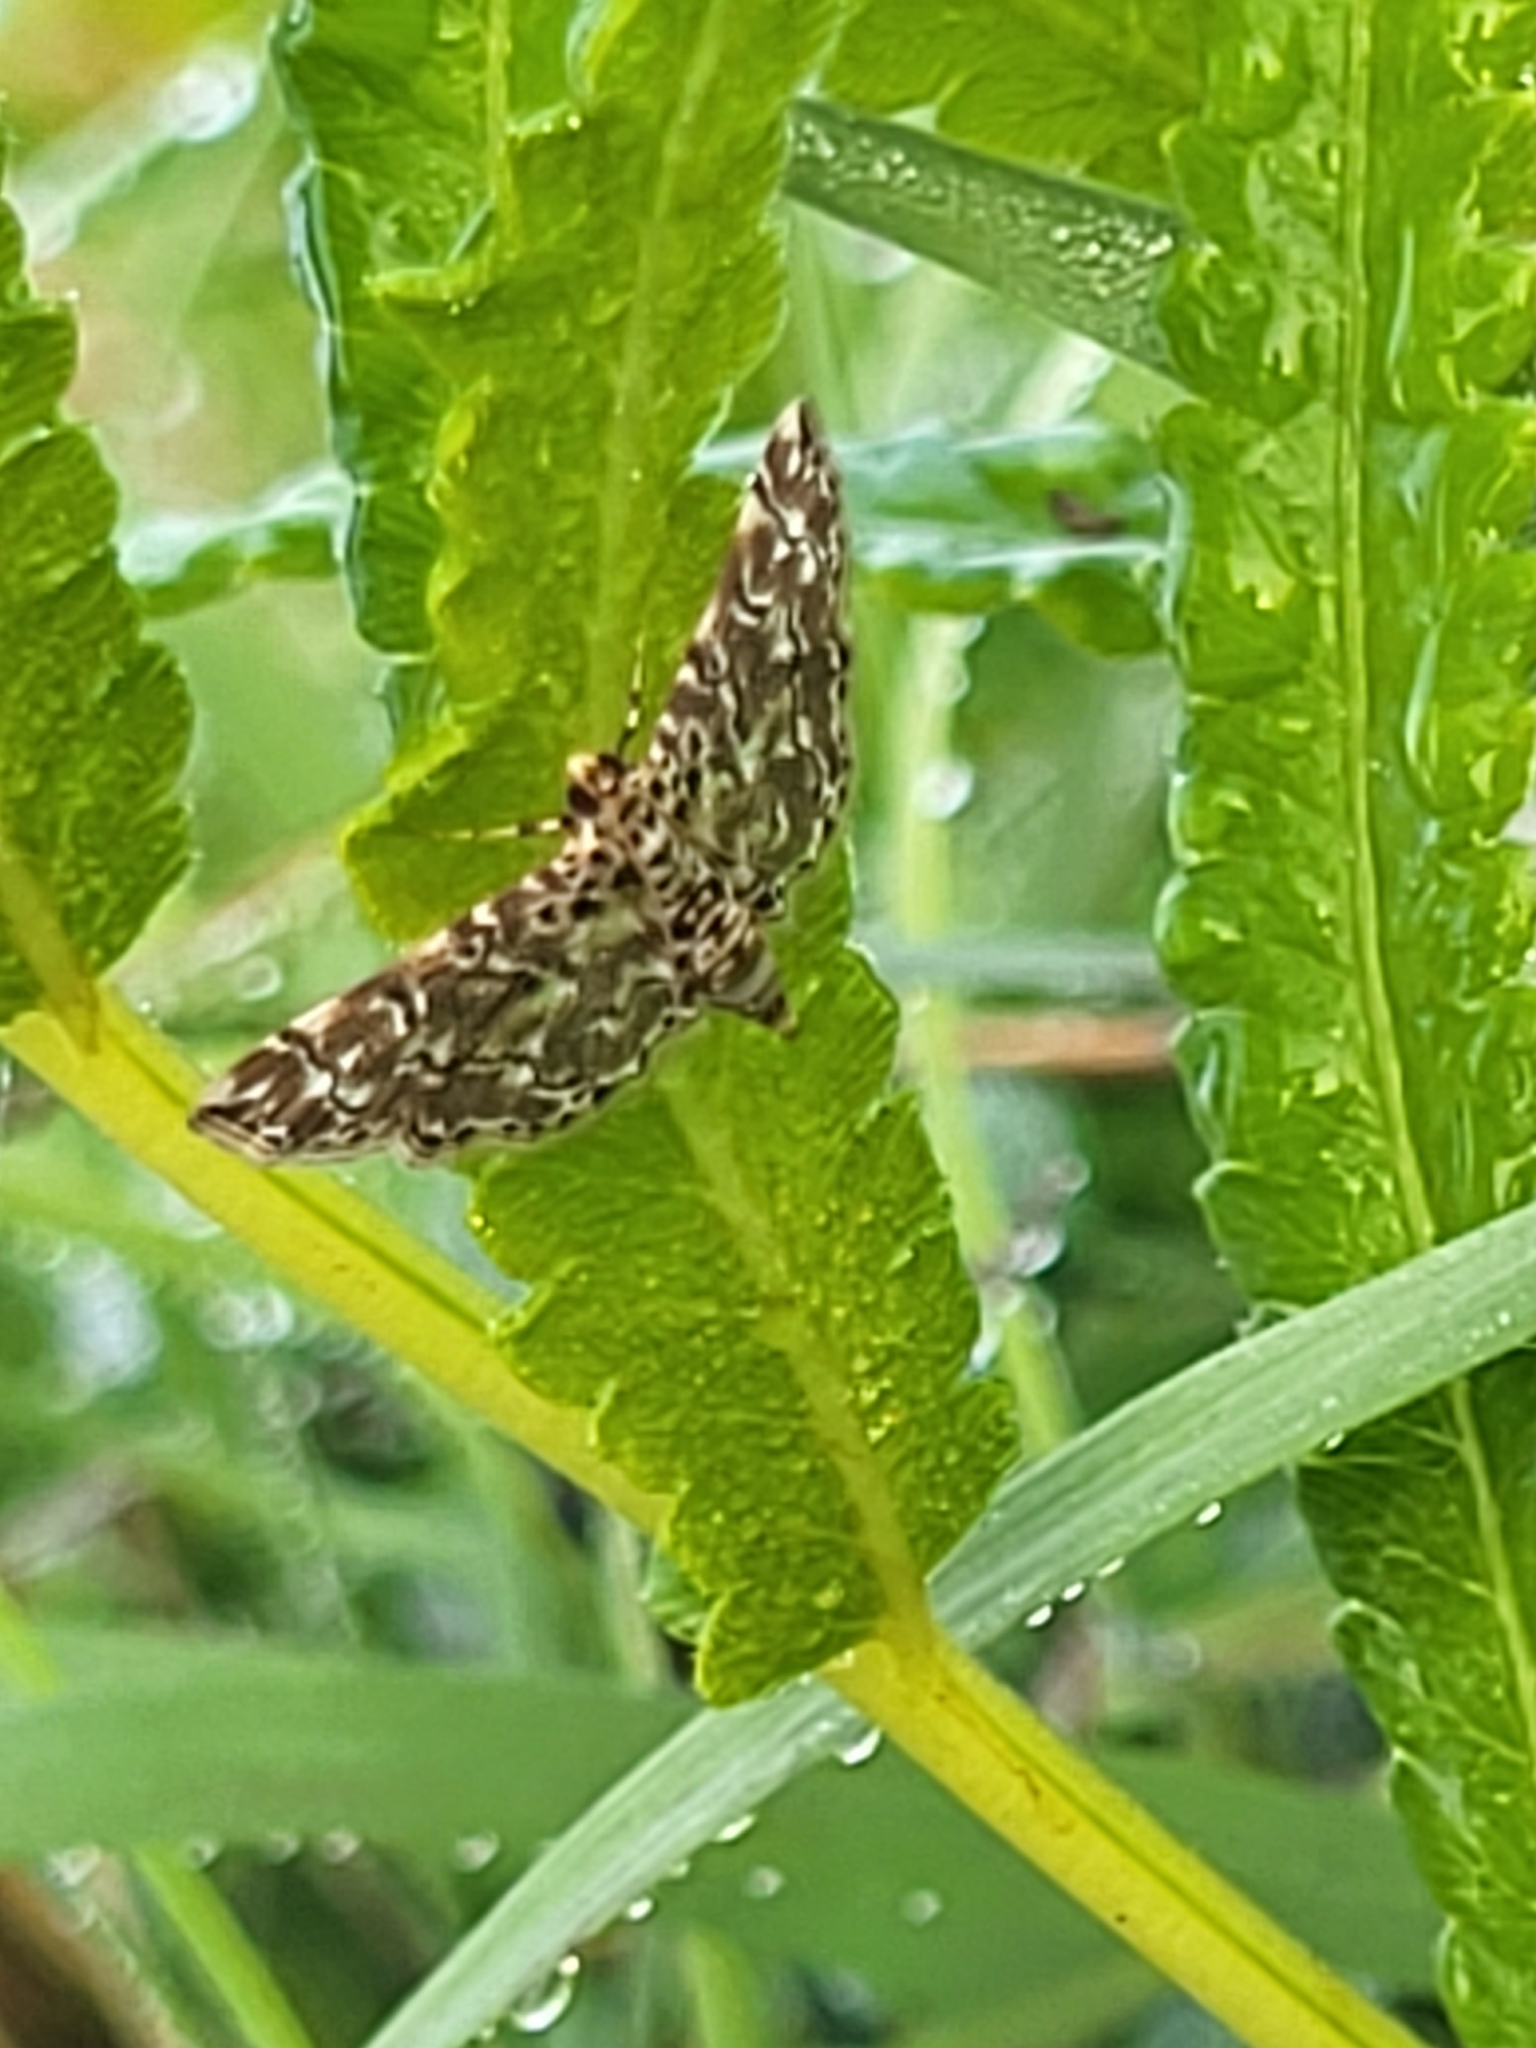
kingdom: Animalia
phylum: Arthropoda
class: Insecta
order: Lepidoptera
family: Crambidae
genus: Metoeca
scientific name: Metoeca foedalis
